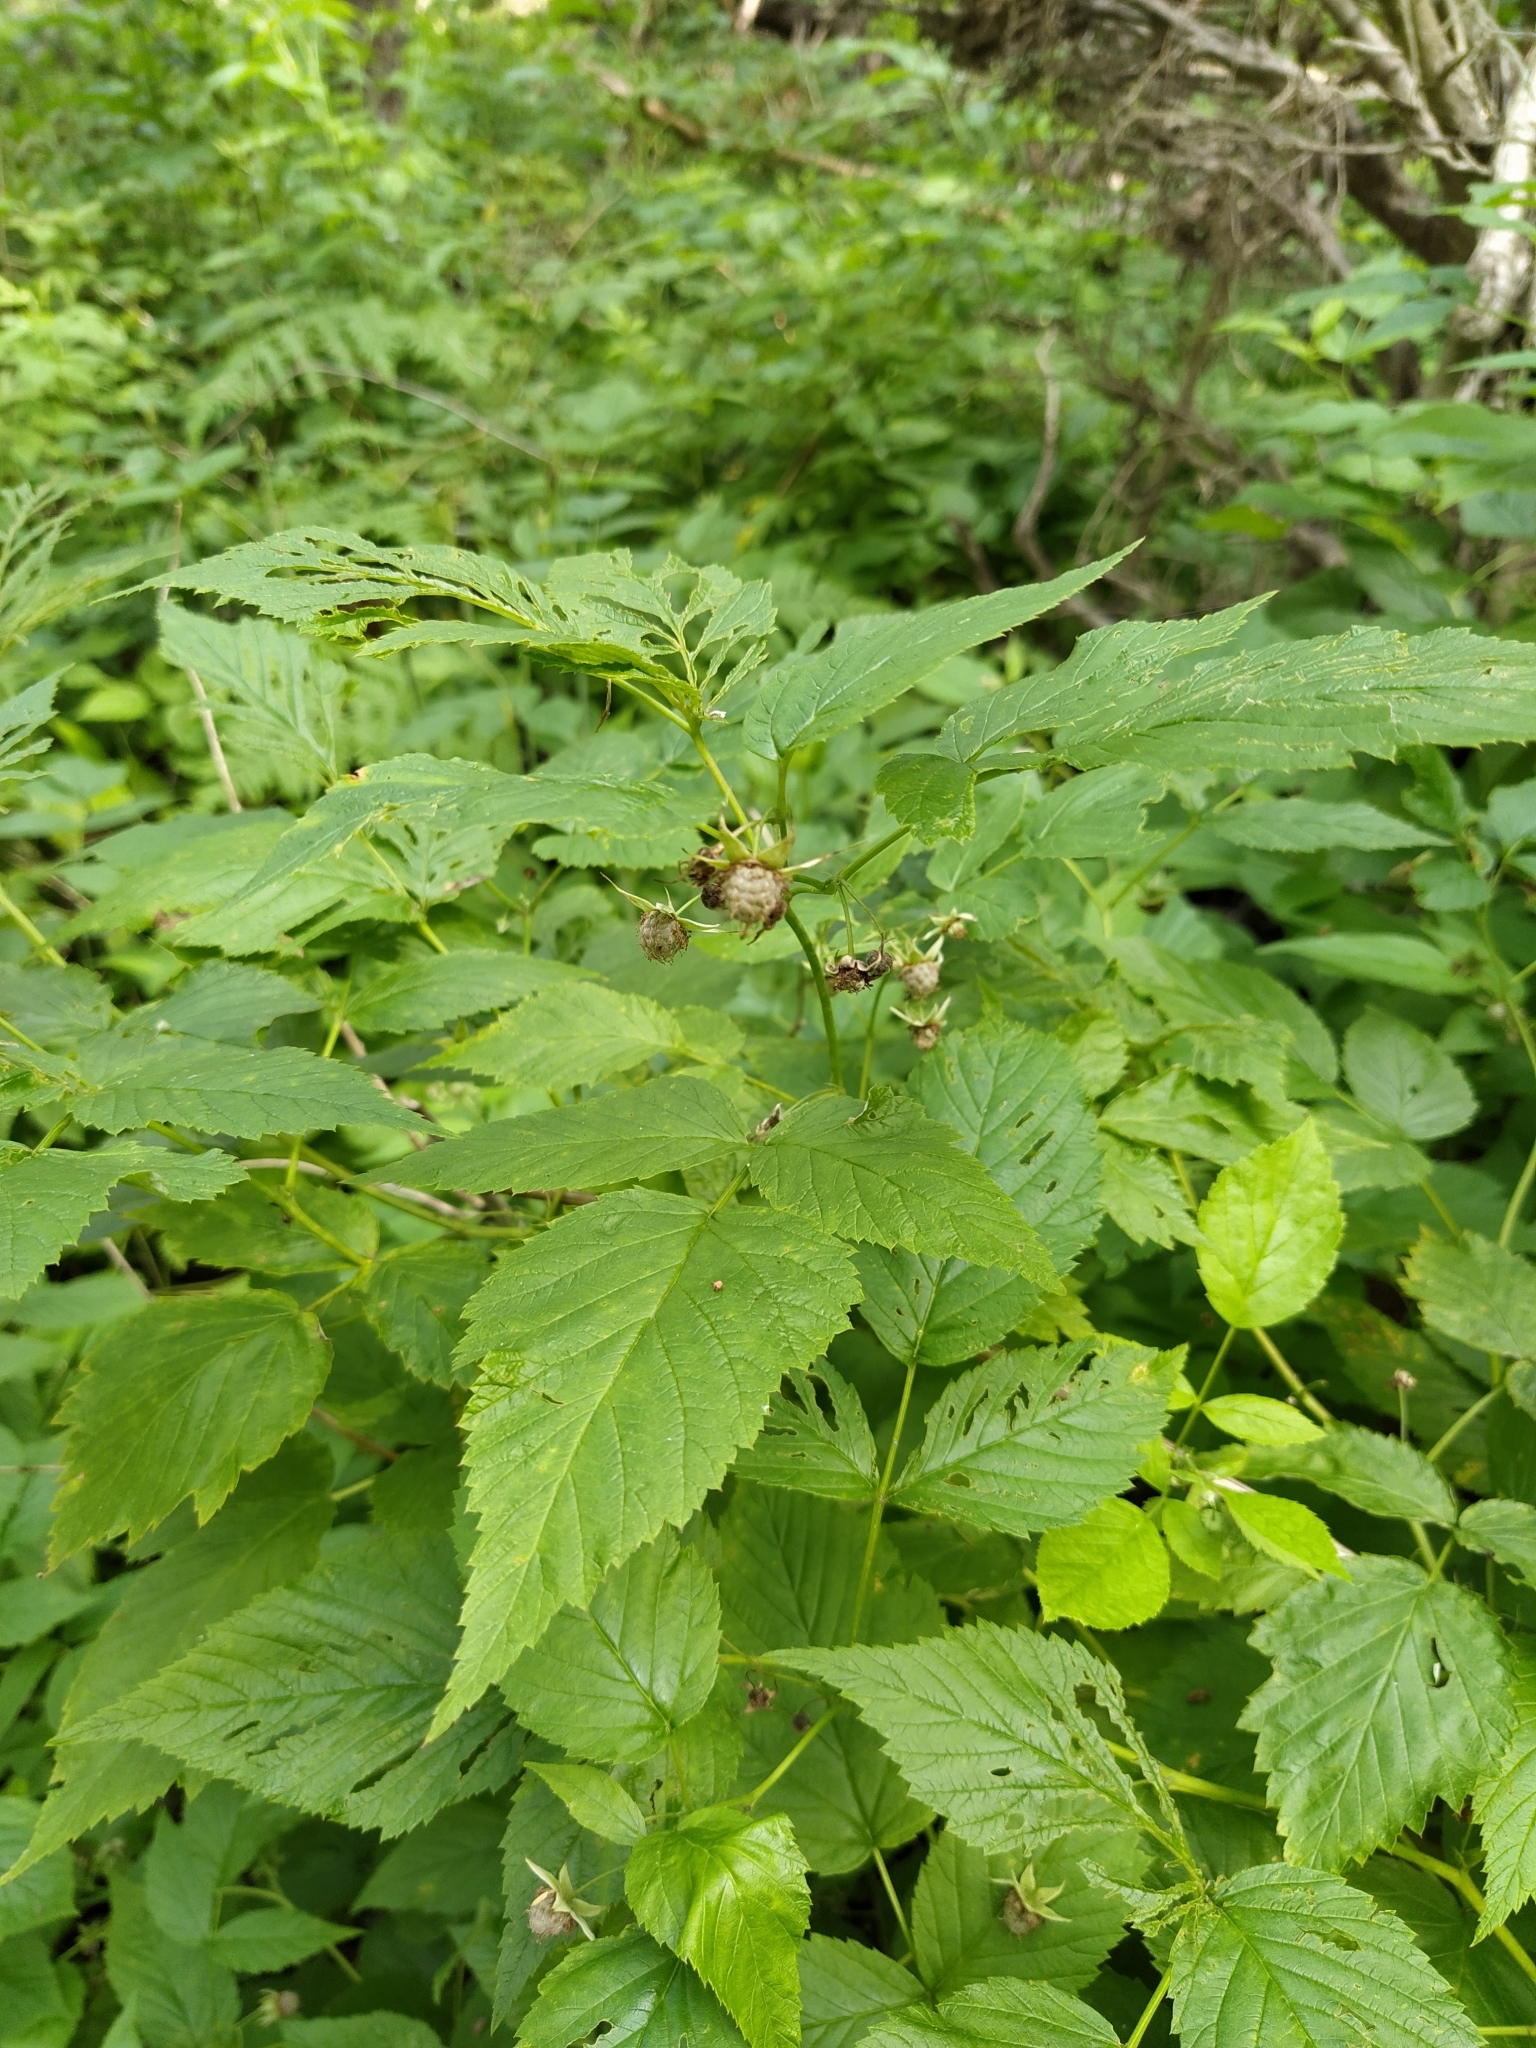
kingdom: Plantae
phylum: Tracheophyta
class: Magnoliopsida
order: Rosales
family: Rosaceae
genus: Rubus
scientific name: Rubus idaeus
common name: Raspberry
